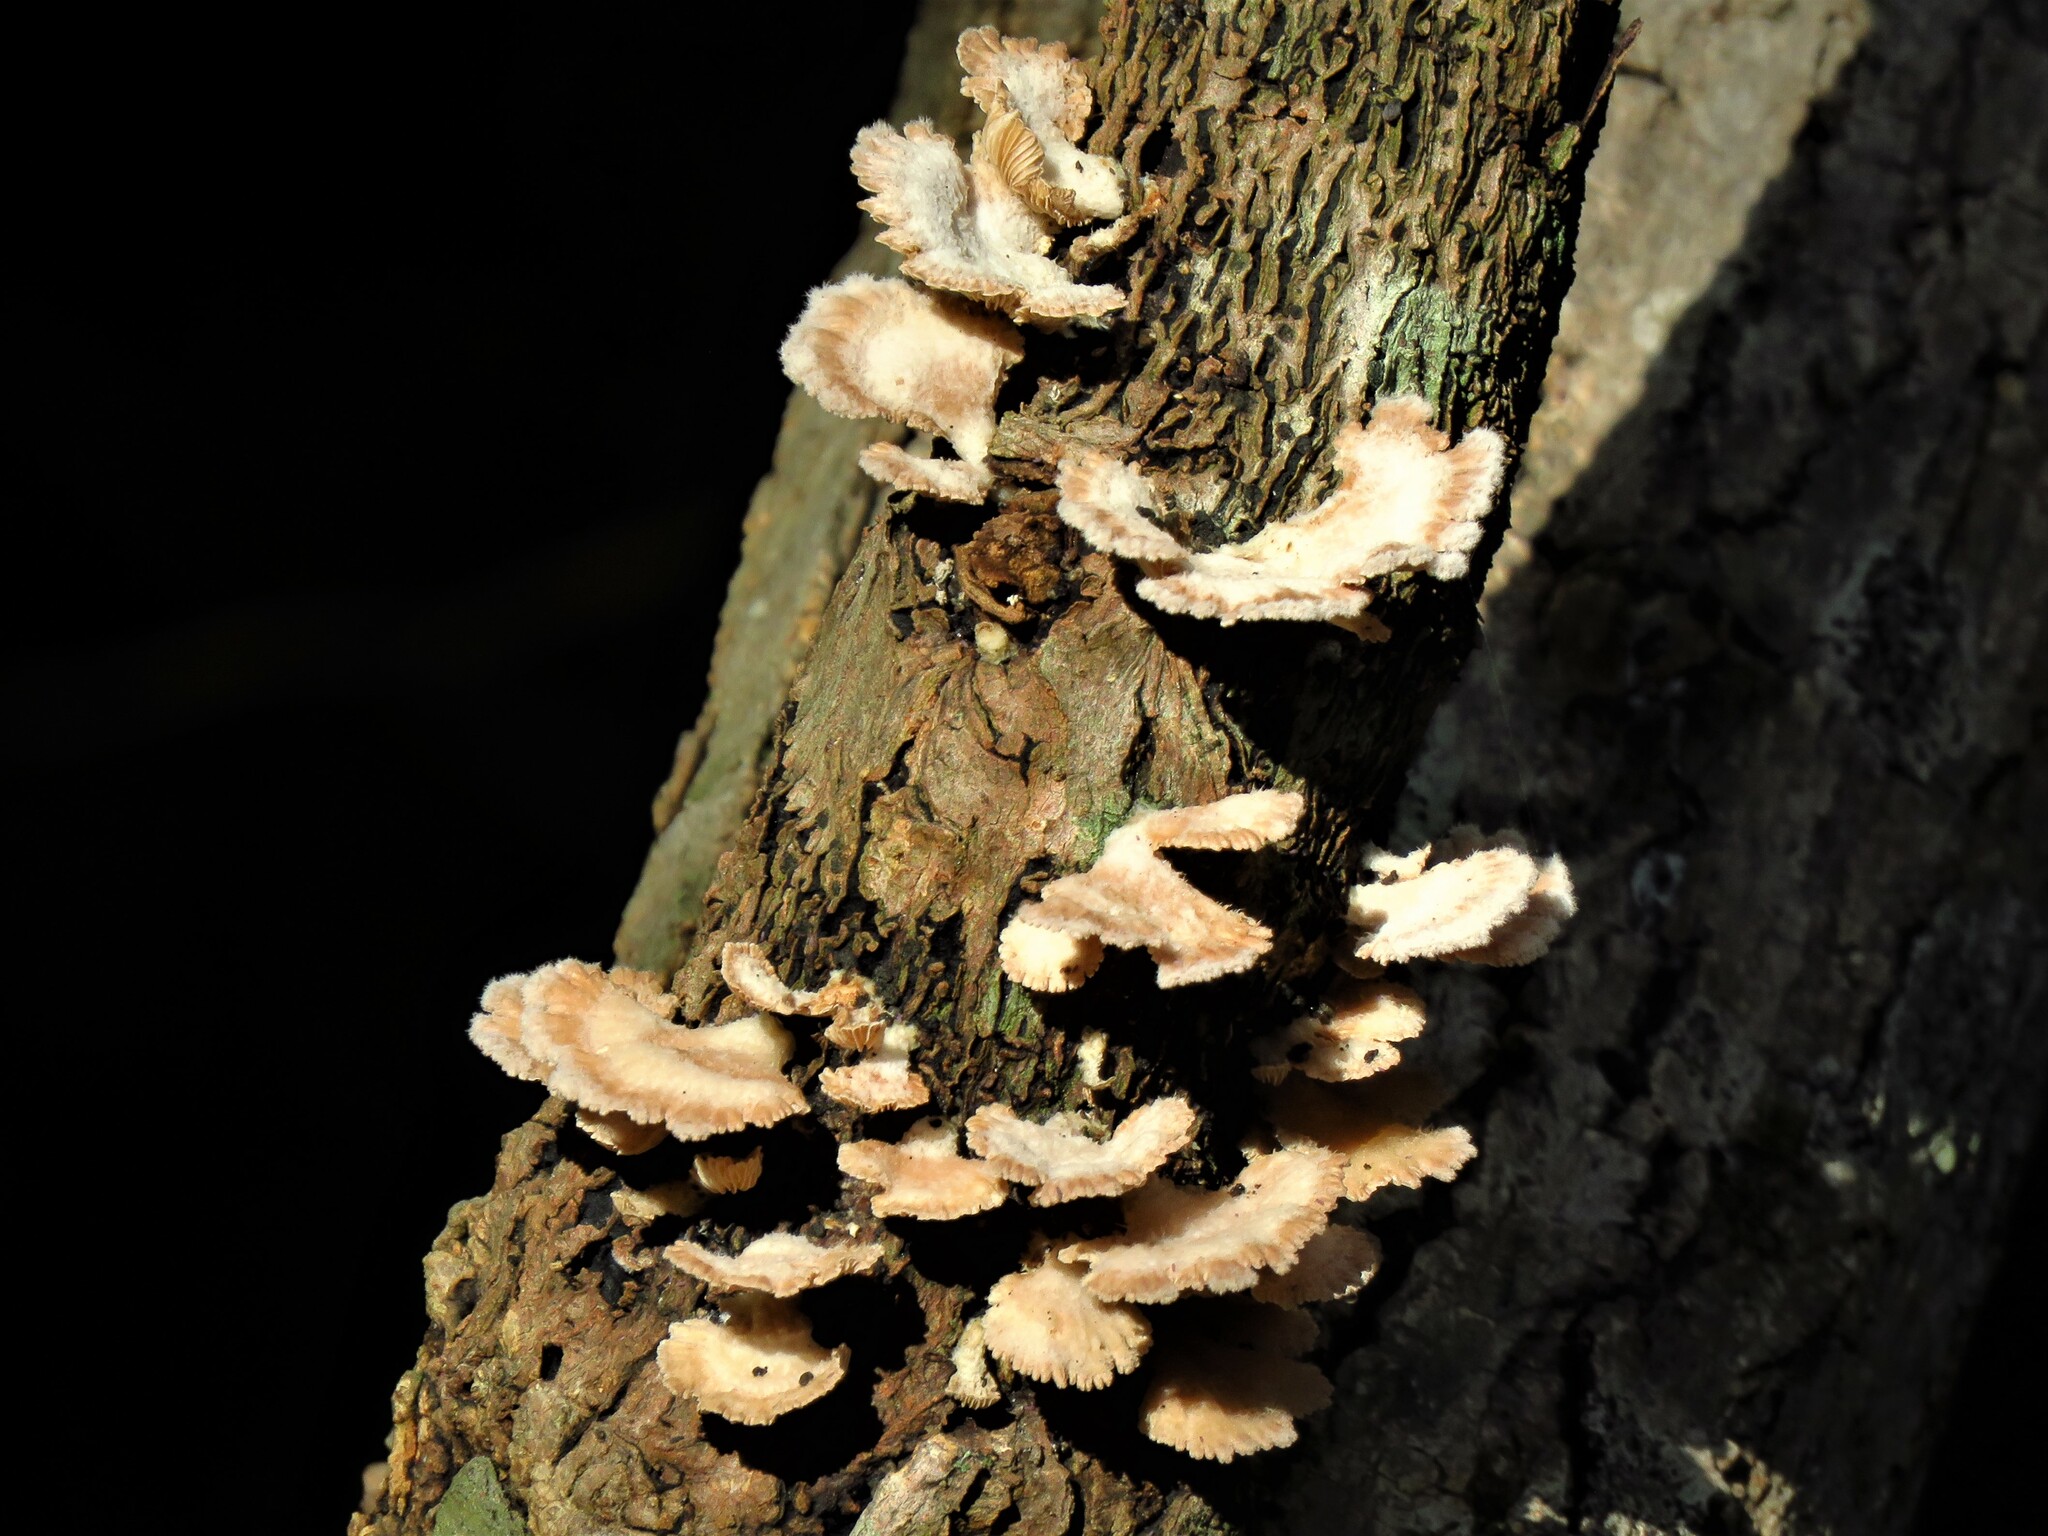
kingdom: Fungi
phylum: Basidiomycota
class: Agaricomycetes
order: Agaricales
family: Schizophyllaceae
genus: Schizophyllum
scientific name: Schizophyllum commune
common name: Common porecrust
